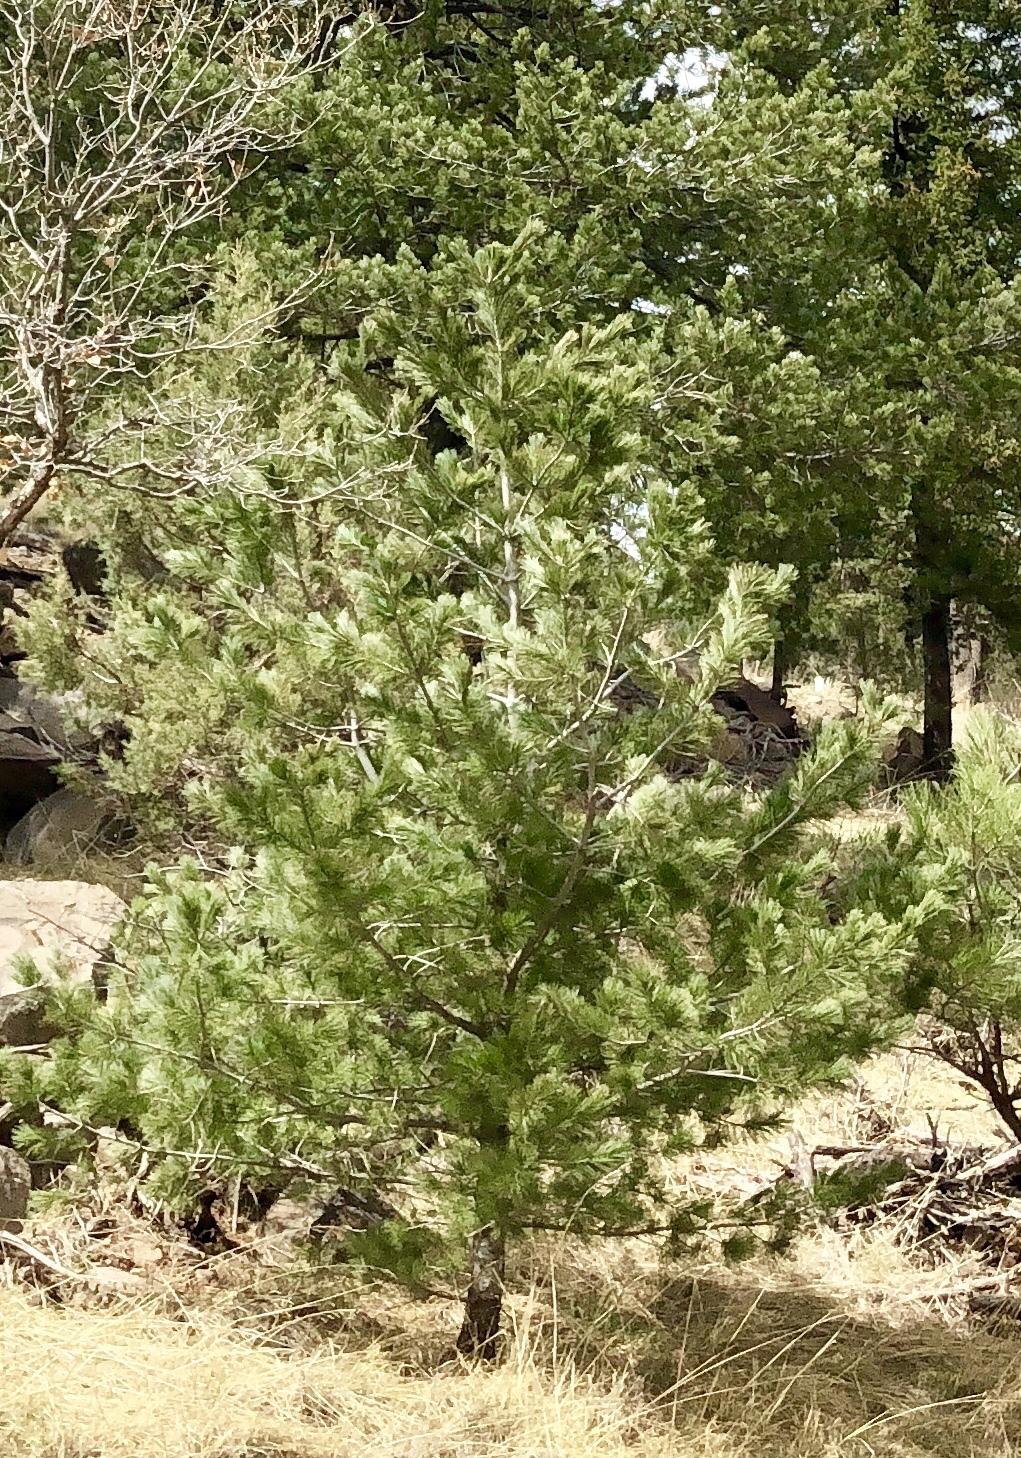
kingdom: Plantae
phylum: Tracheophyta
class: Pinopsida
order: Pinales
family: Pinaceae
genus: Pinus
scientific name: Pinus strobiformis
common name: Southwestern white pine
